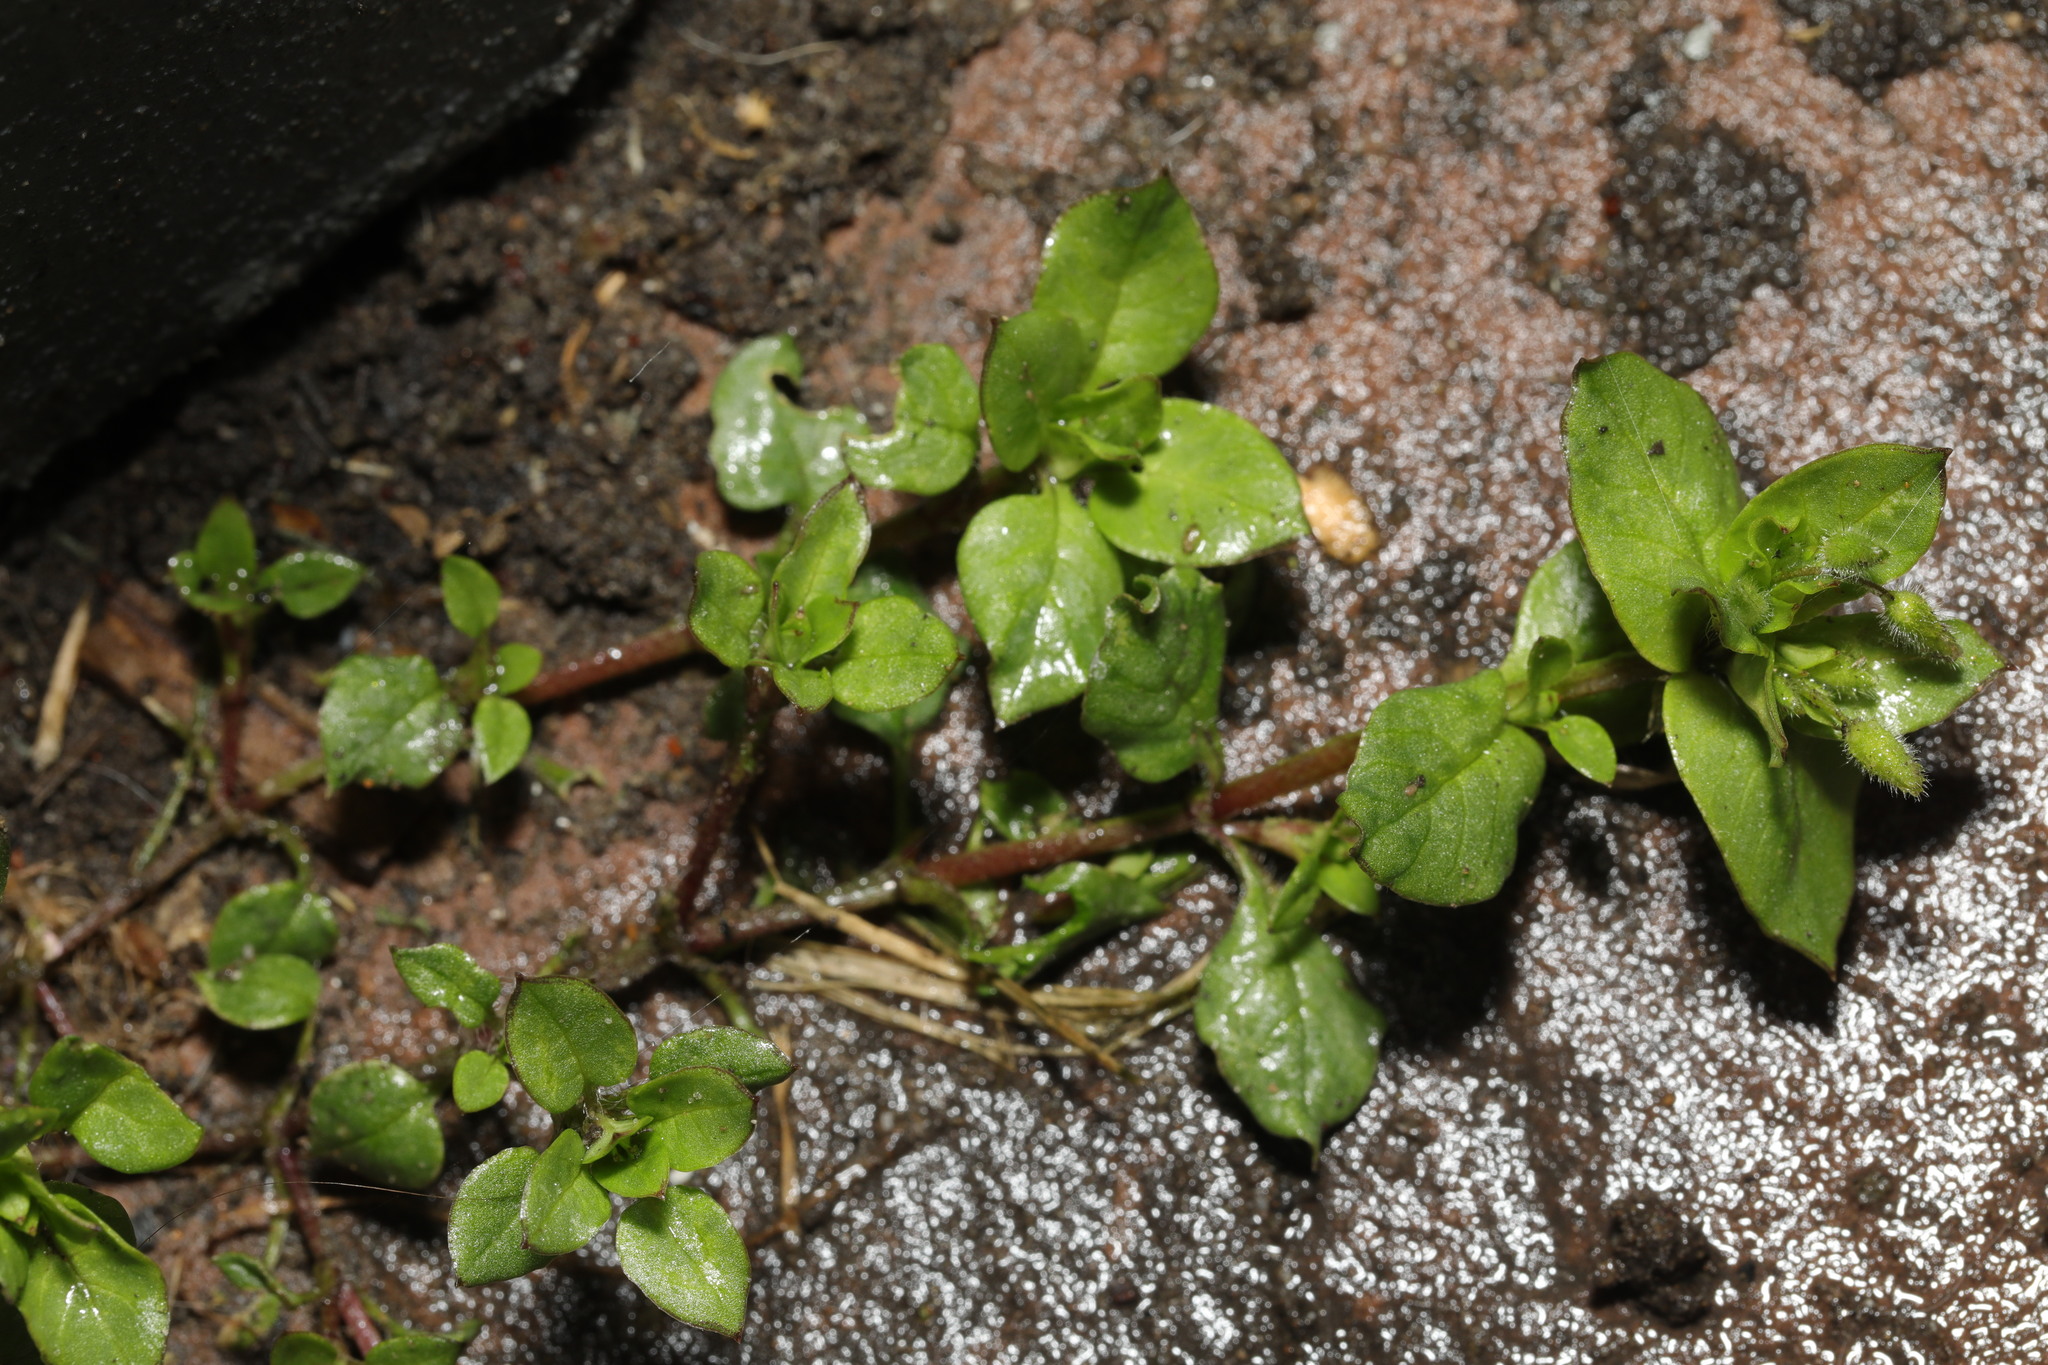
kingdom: Plantae
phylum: Tracheophyta
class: Magnoliopsida
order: Caryophyllales
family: Caryophyllaceae
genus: Stellaria
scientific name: Stellaria media
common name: Common chickweed
